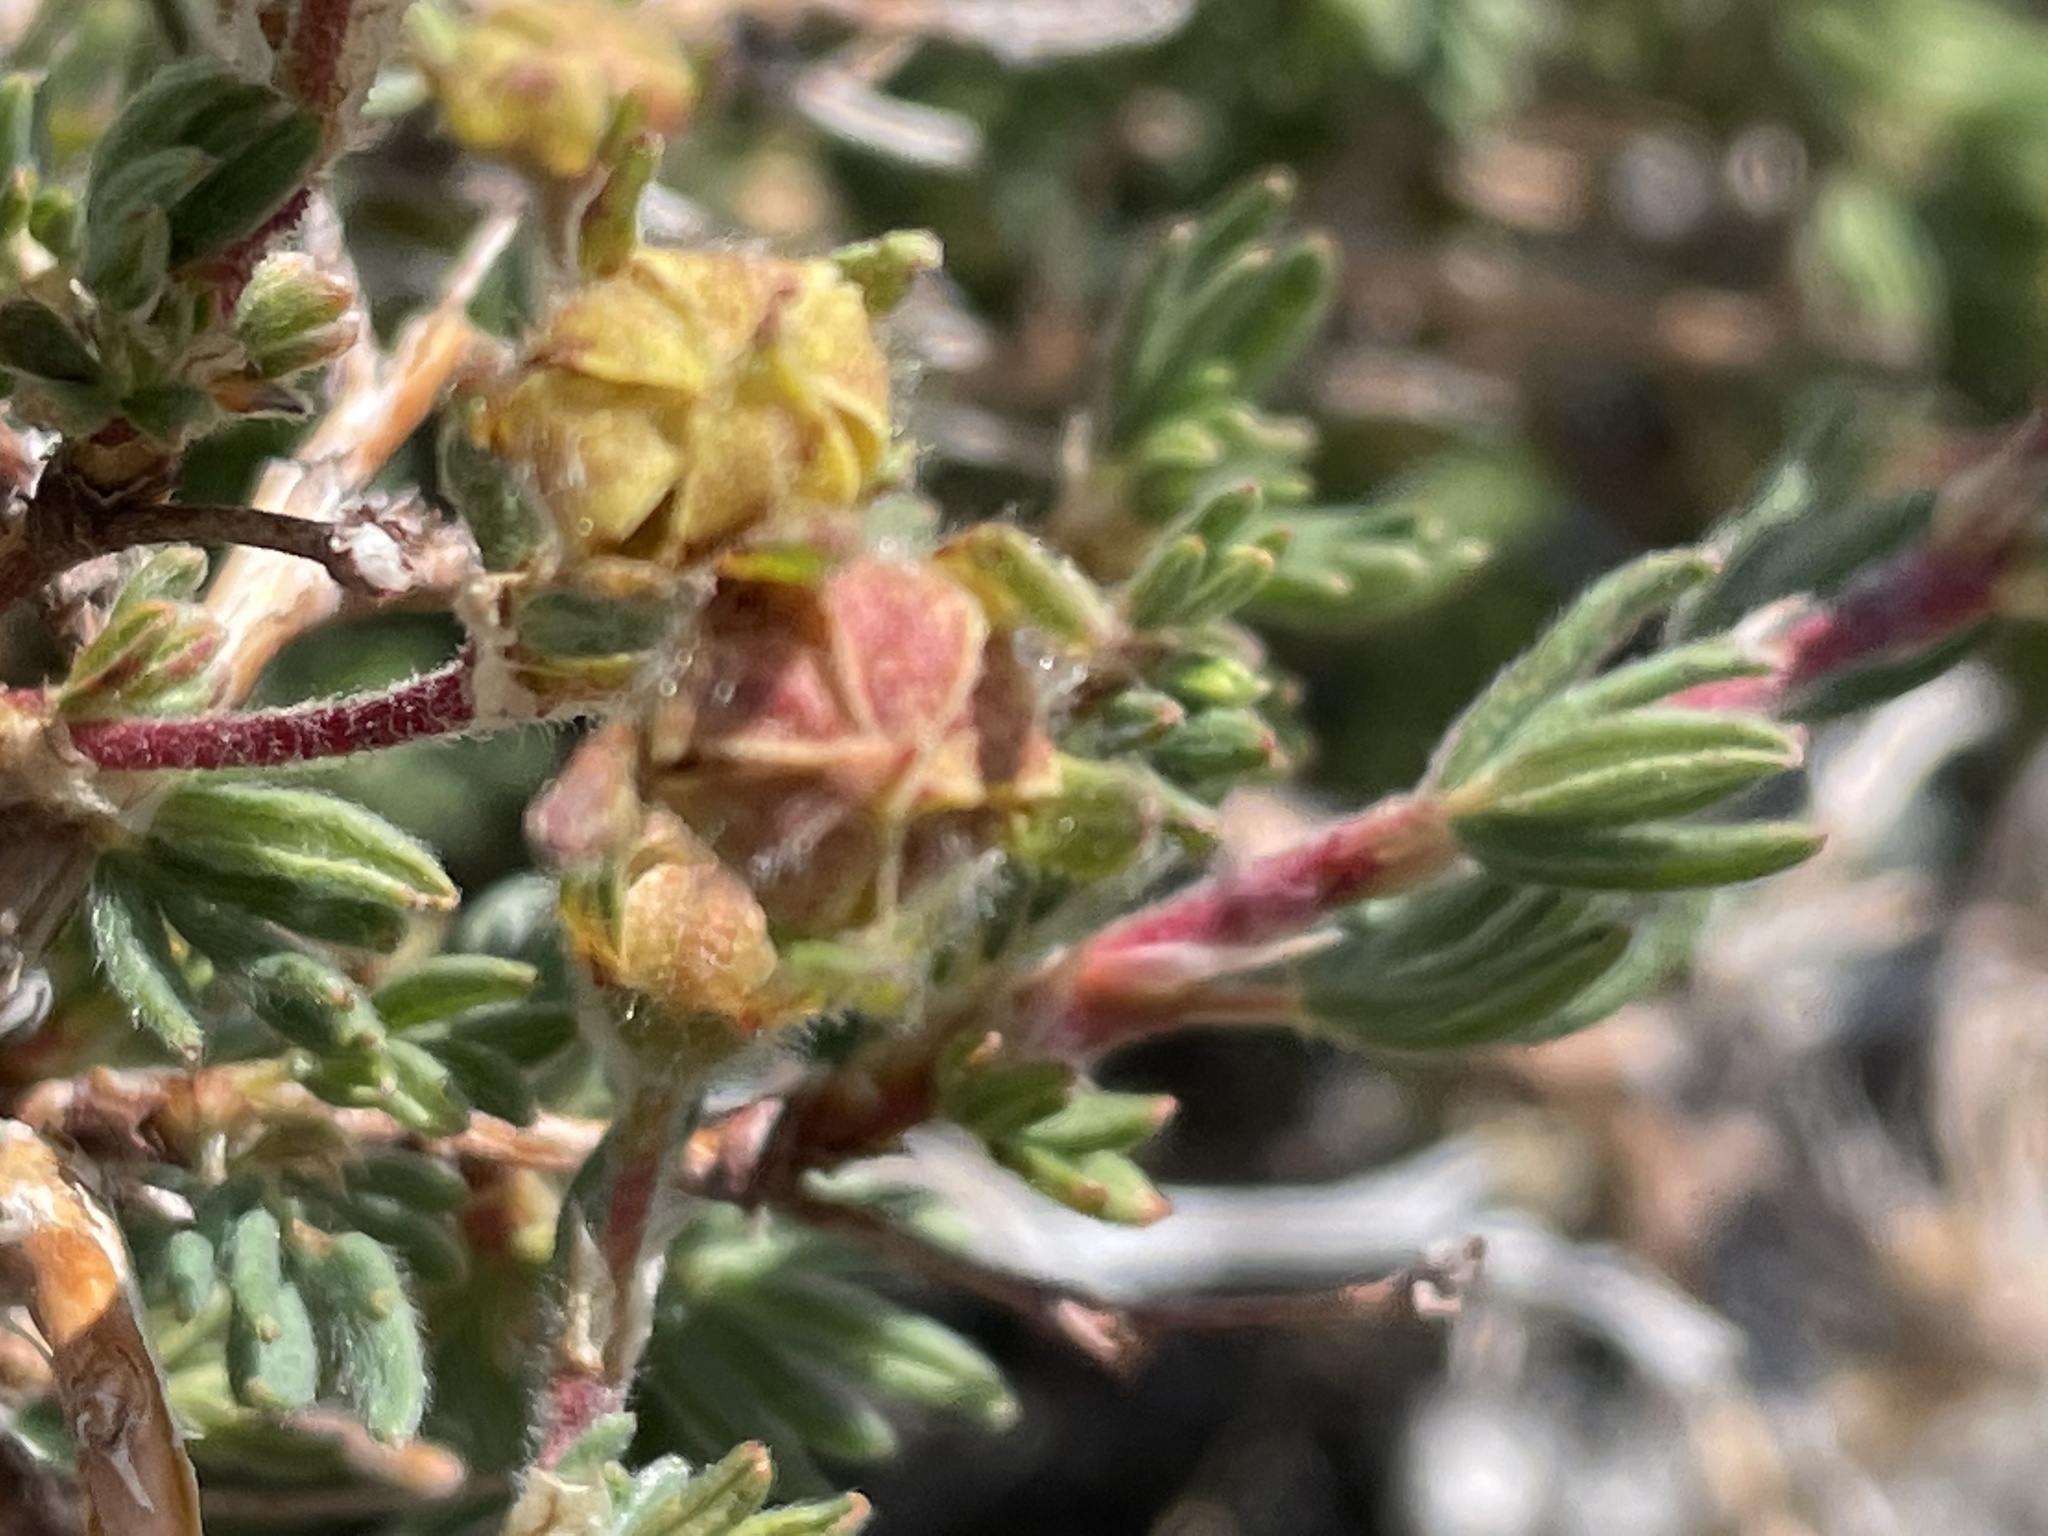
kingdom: Plantae
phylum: Tracheophyta
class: Magnoliopsida
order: Rosales
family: Rosaceae
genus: Dasiphora
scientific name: Dasiphora fruticosa
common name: Shrubby cinquefoil
